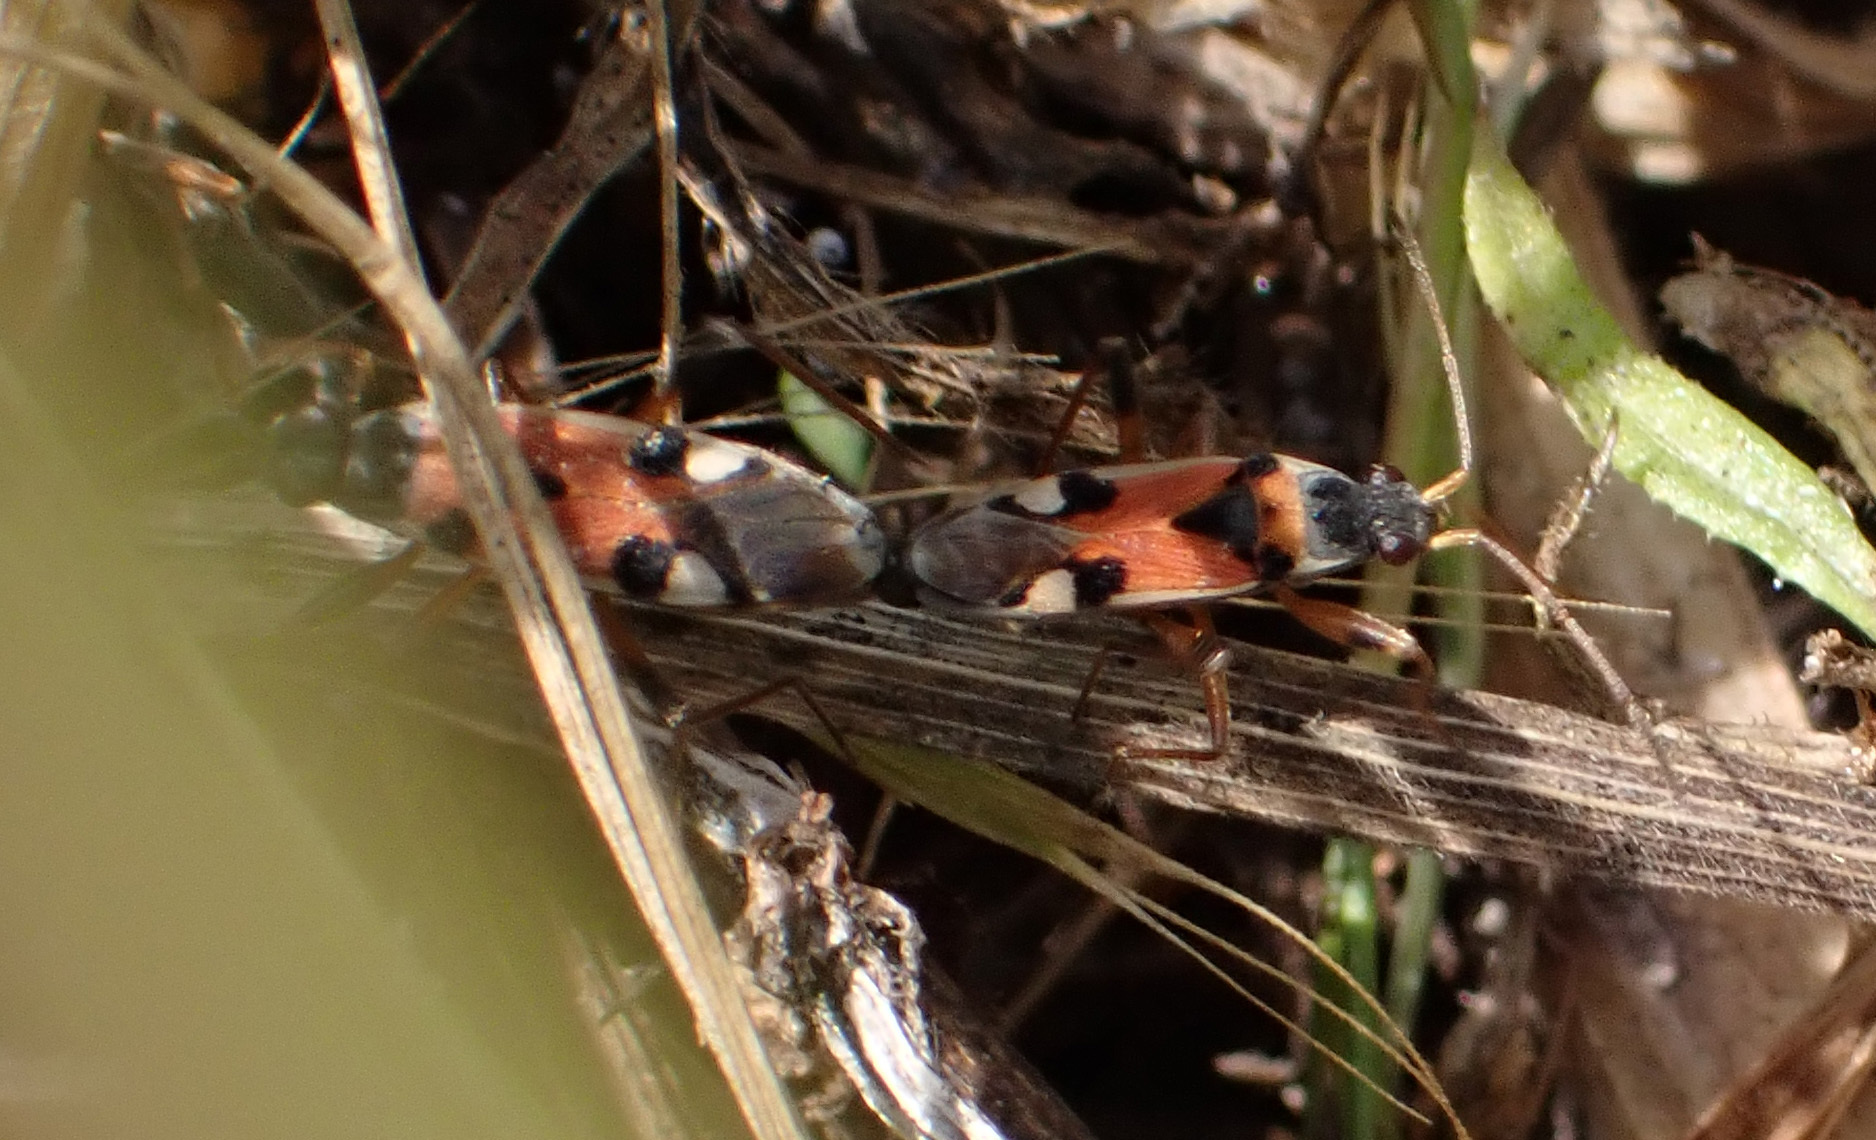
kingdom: Animalia
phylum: Arthropoda
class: Insecta
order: Hemiptera
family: Rhyparochromidae
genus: Beosus
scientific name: Beosus quadripunctatus
